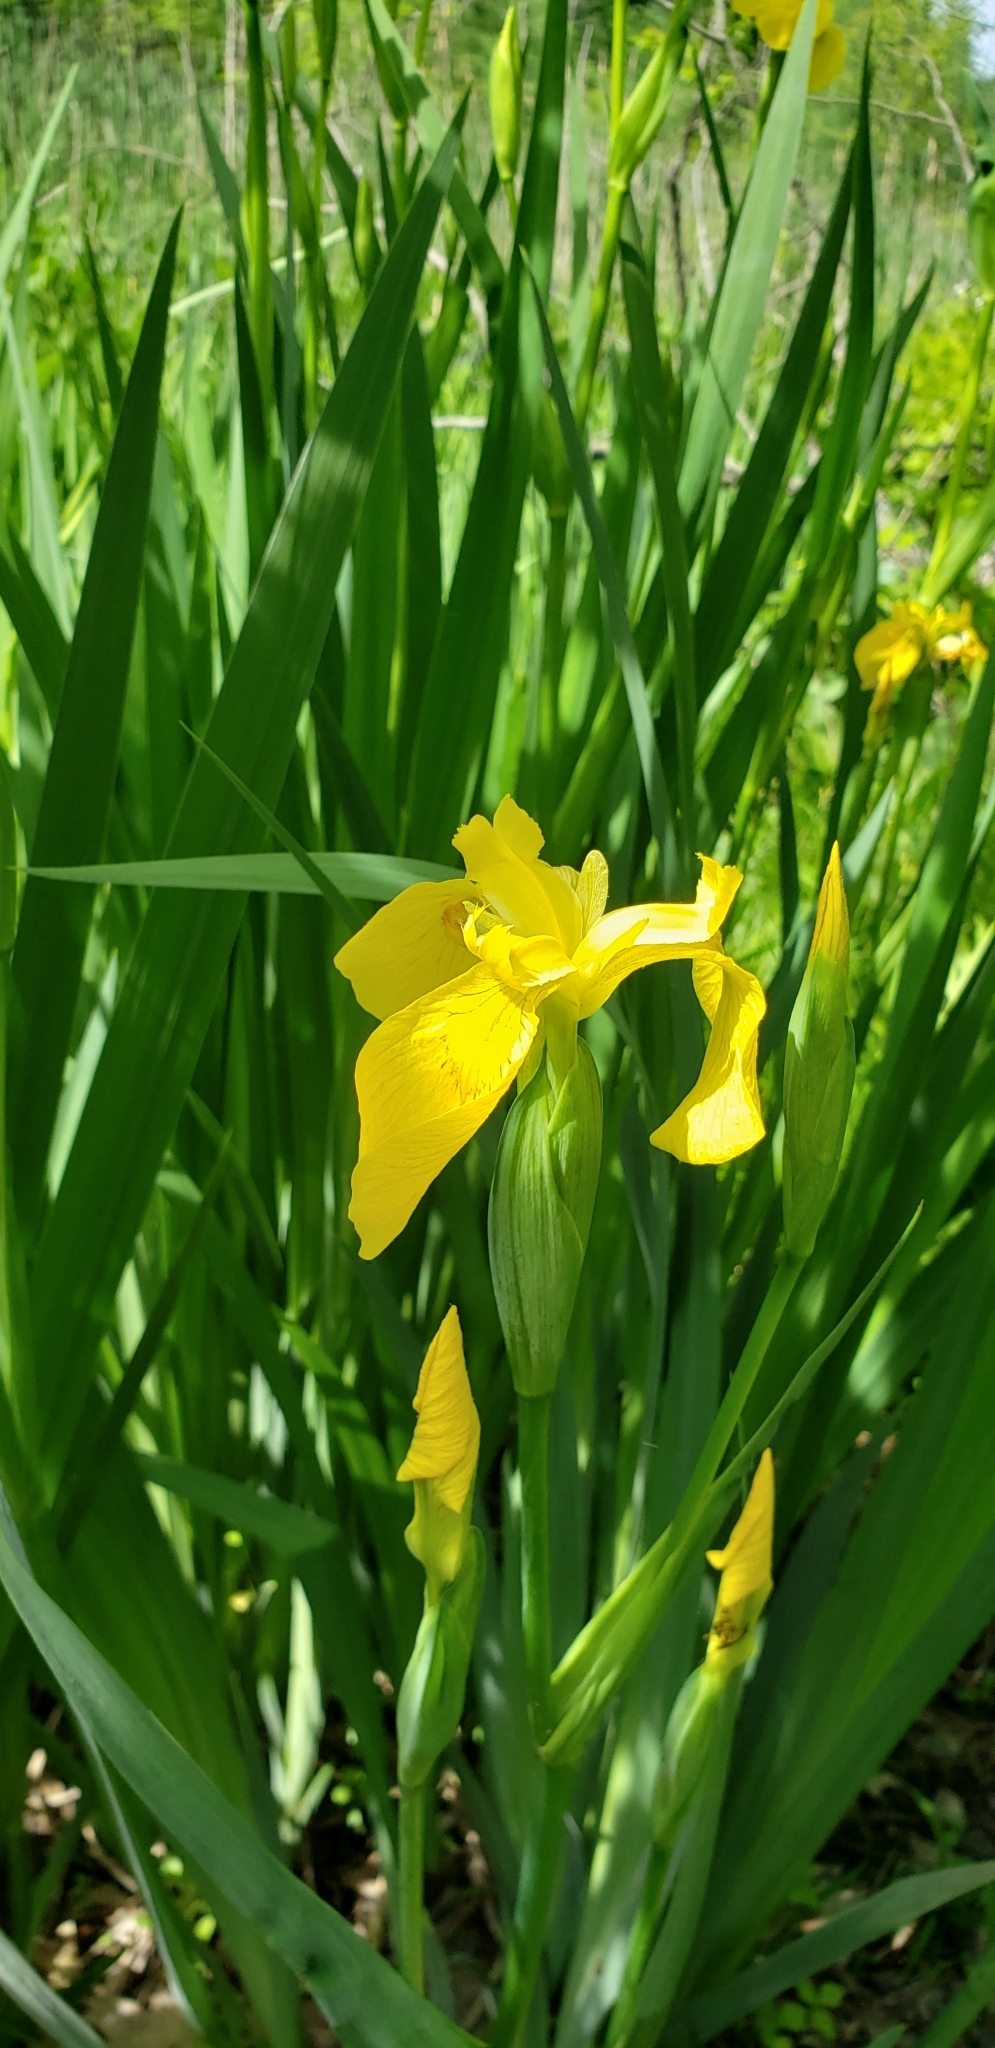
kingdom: Plantae
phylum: Tracheophyta
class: Liliopsida
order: Asparagales
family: Iridaceae
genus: Iris
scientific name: Iris pseudacorus
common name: Yellow flag
